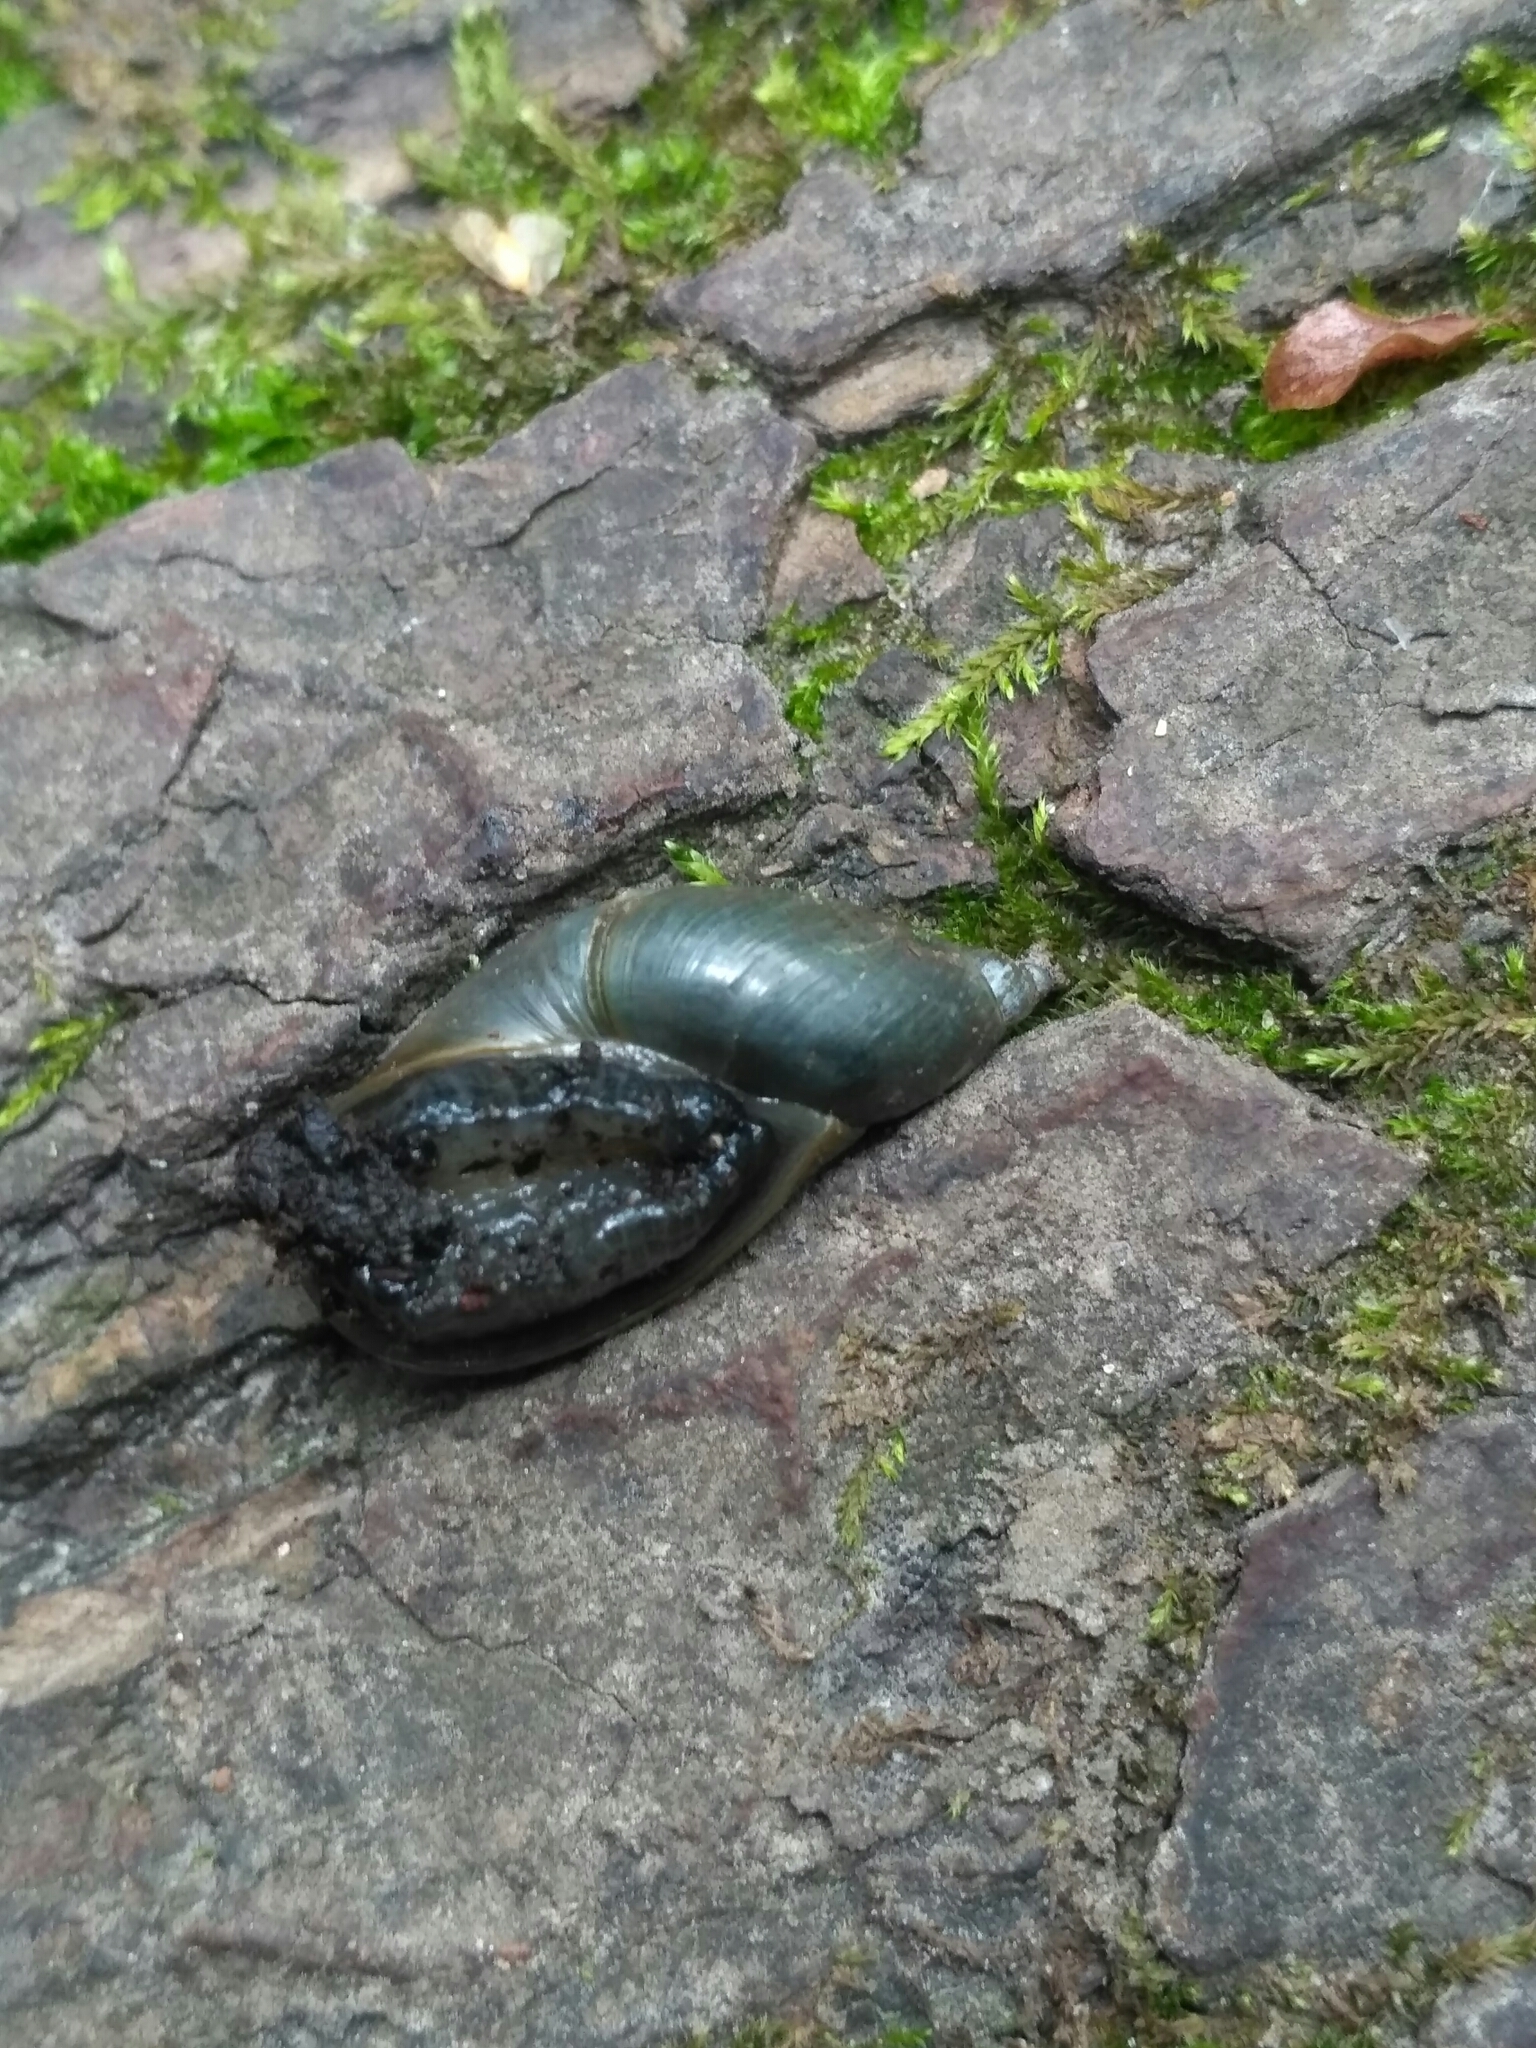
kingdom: Animalia
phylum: Mollusca
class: Gastropoda
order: Stylommatophora
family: Succineidae
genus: Succinea
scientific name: Succinea putris
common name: European ambersnail
